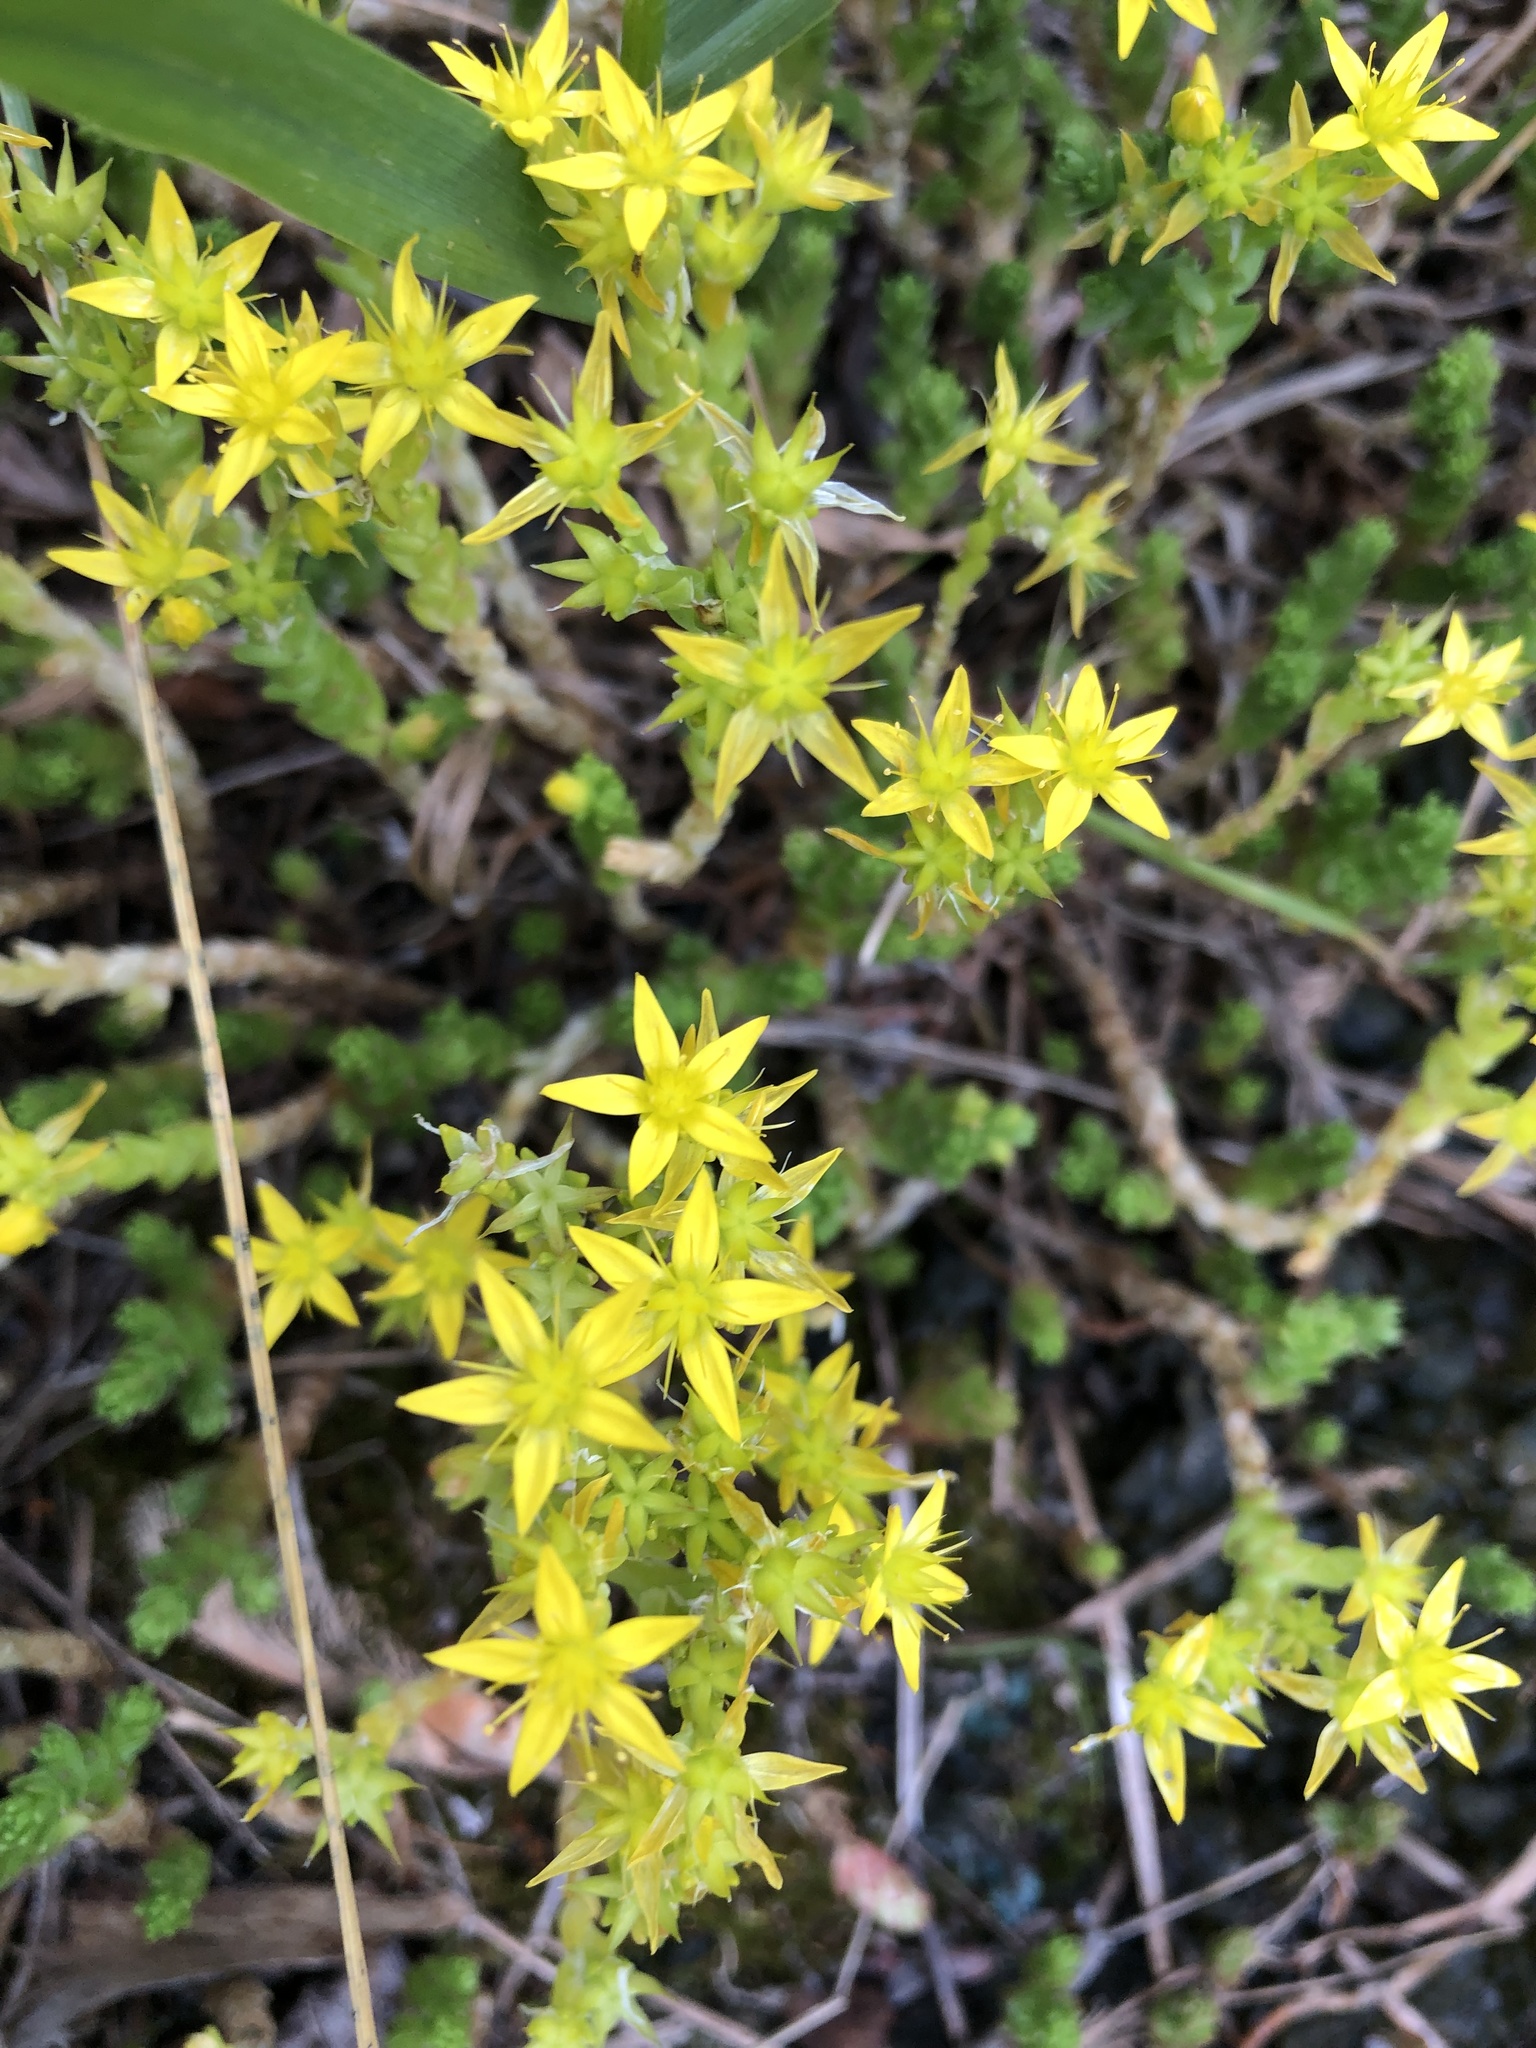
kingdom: Plantae
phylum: Tracheophyta
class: Magnoliopsida
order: Saxifragales
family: Crassulaceae
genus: Sedum
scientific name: Sedum acre
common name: Biting stonecrop
